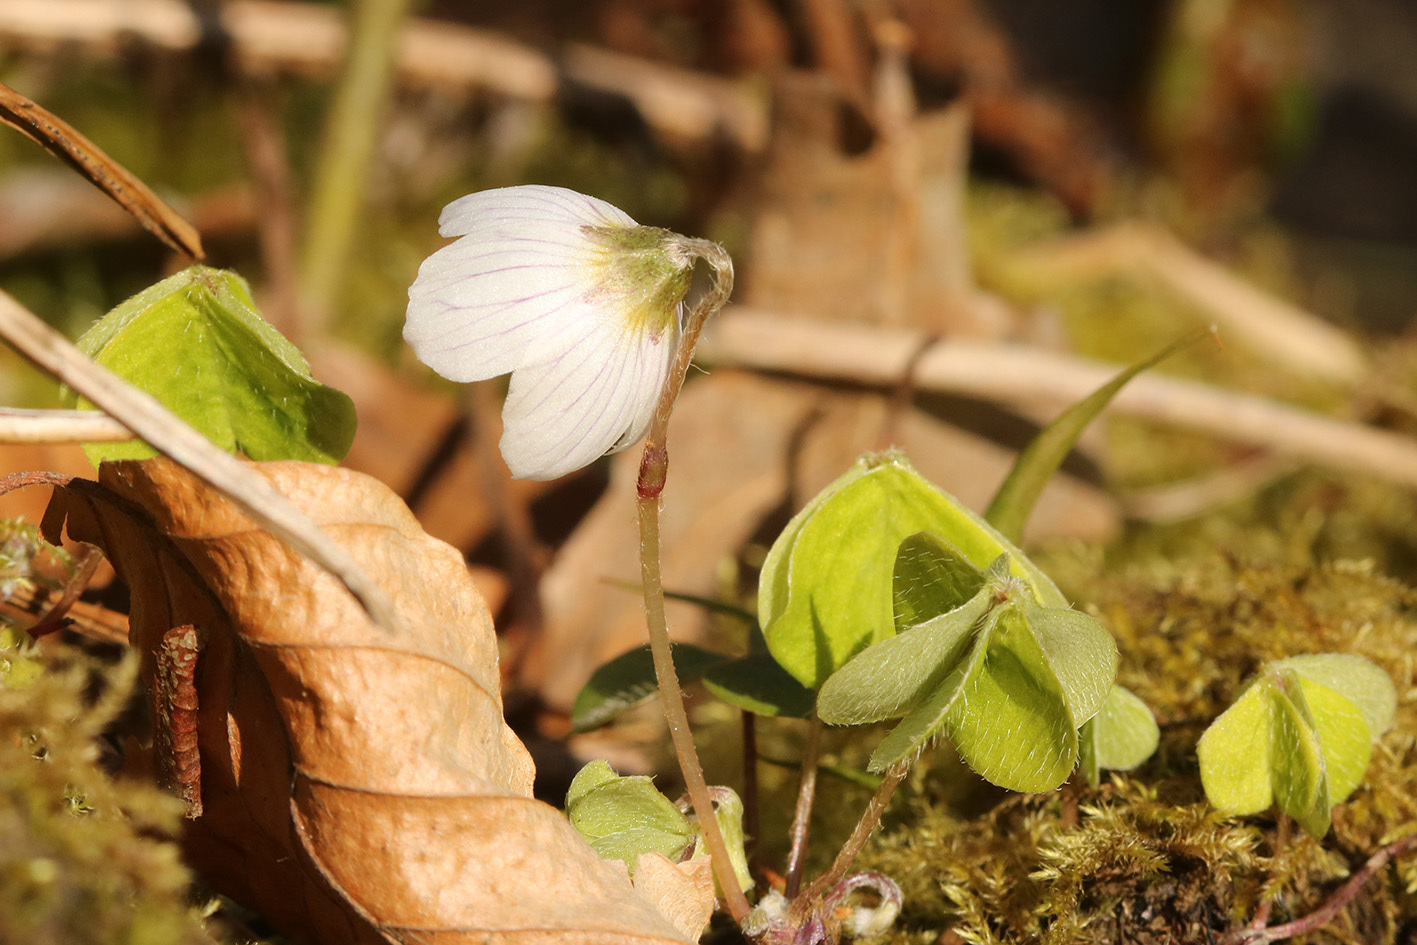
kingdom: Plantae
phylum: Tracheophyta
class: Magnoliopsida
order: Oxalidales
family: Oxalidaceae
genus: Oxalis
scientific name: Oxalis acetosella
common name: Wood-sorrel
